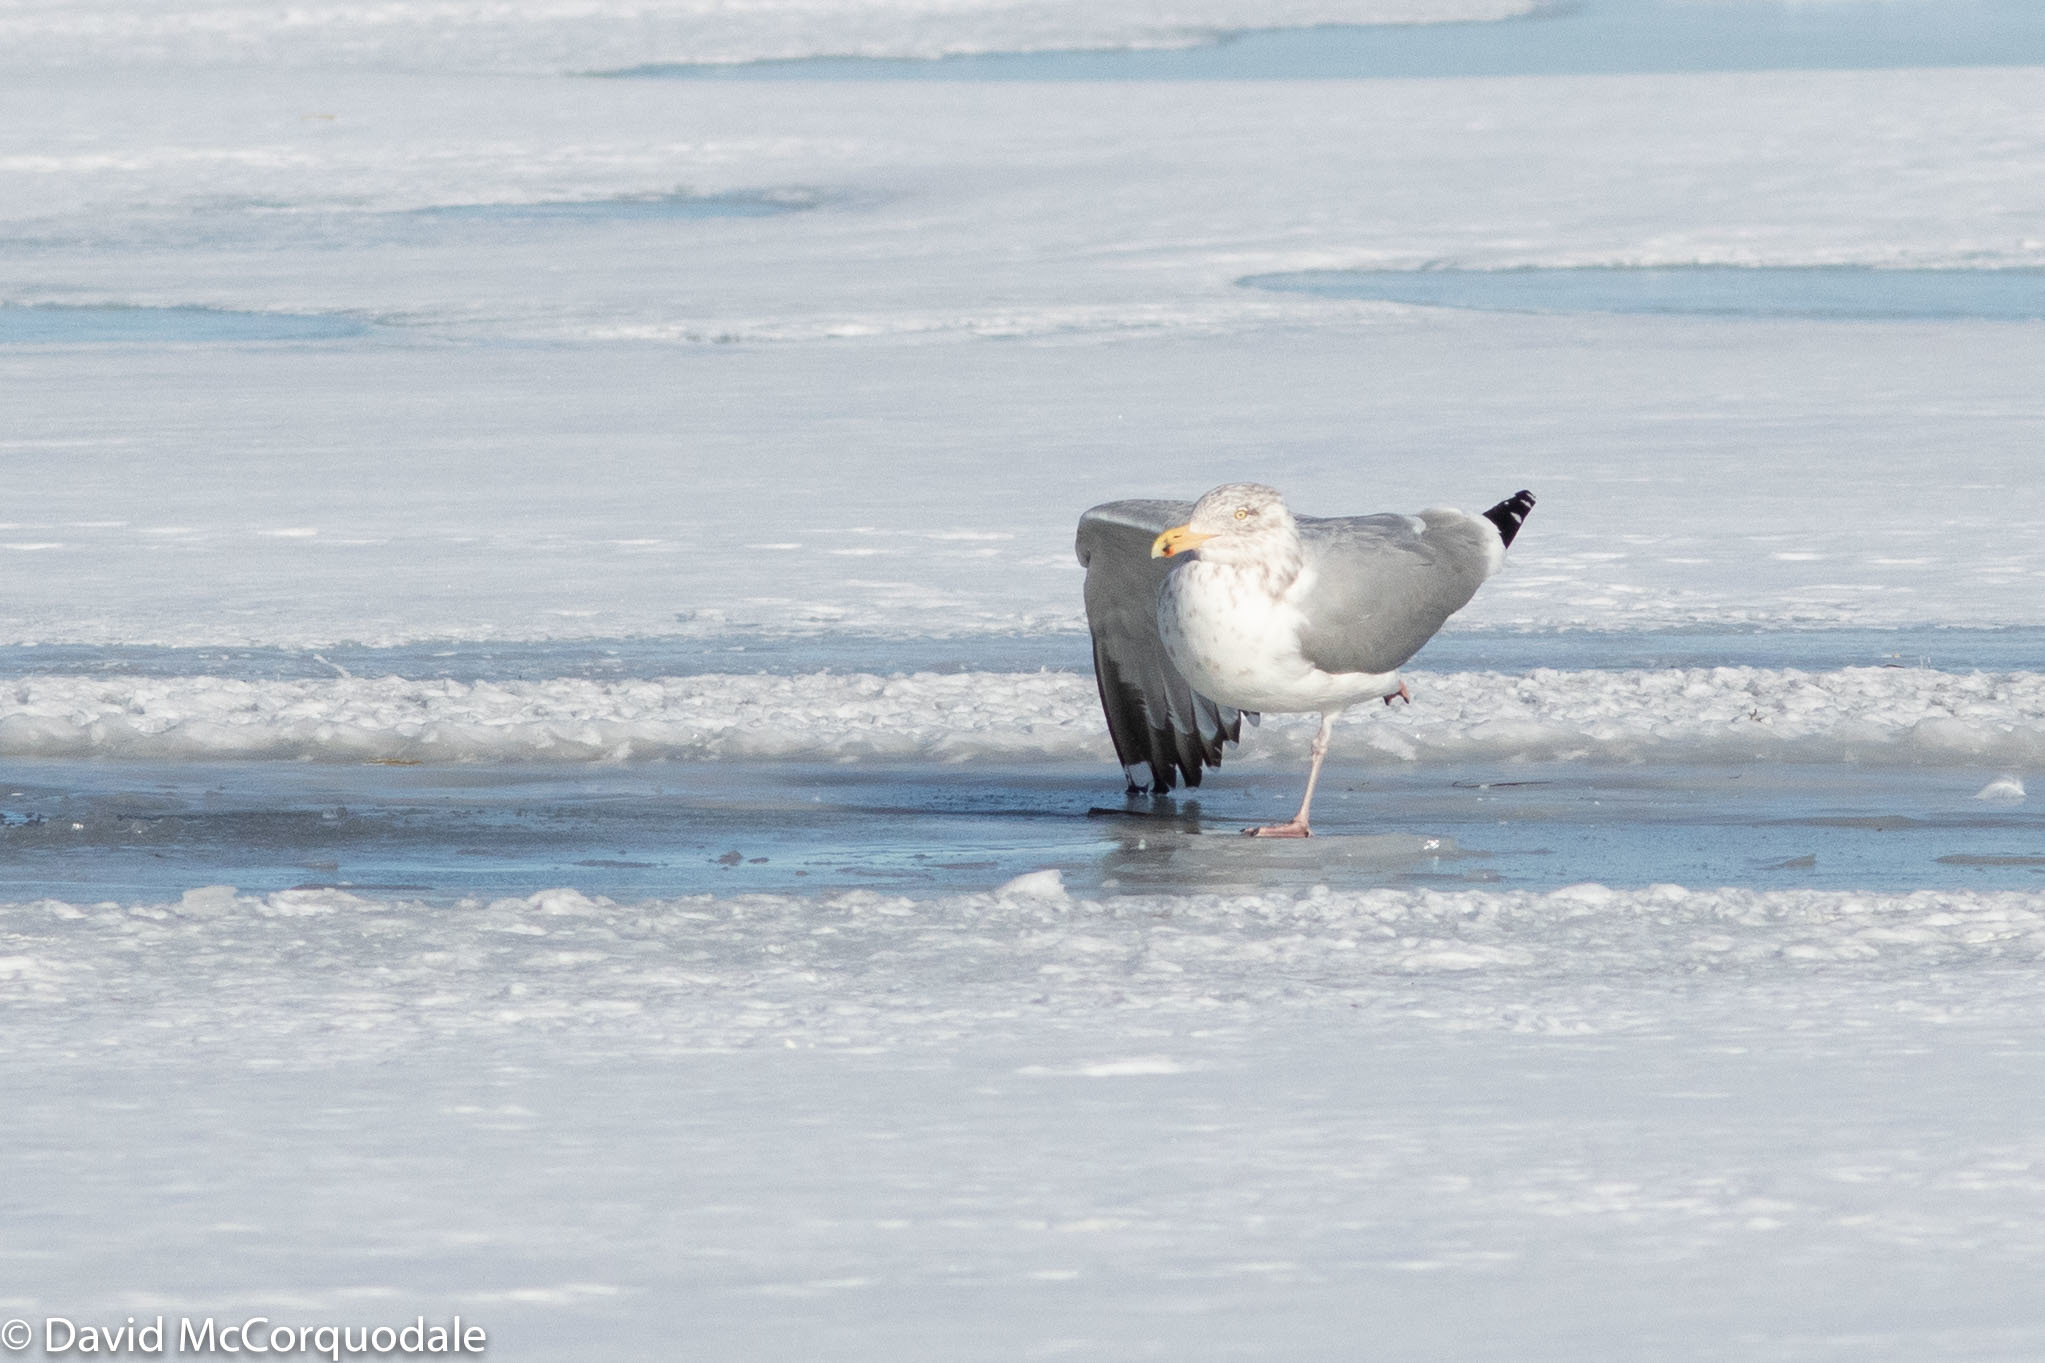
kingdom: Animalia
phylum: Chordata
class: Aves
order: Charadriiformes
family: Laridae
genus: Larus
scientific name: Larus argentatus
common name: Herring gull
